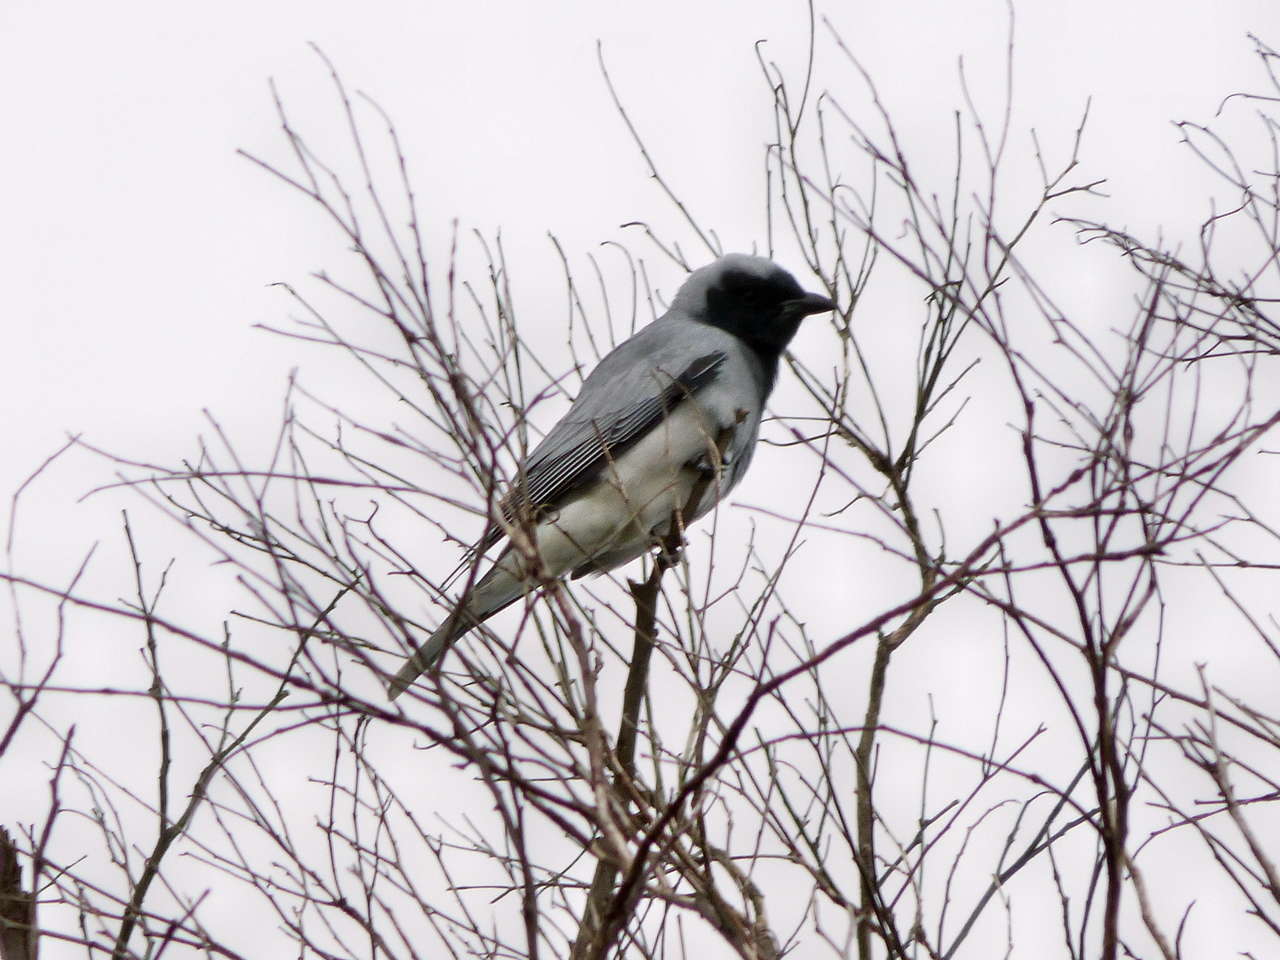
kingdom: Animalia
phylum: Chordata
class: Aves
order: Passeriformes
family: Campephagidae
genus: Coracina
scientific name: Coracina novaehollandiae
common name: Black-faced cuckooshrike
